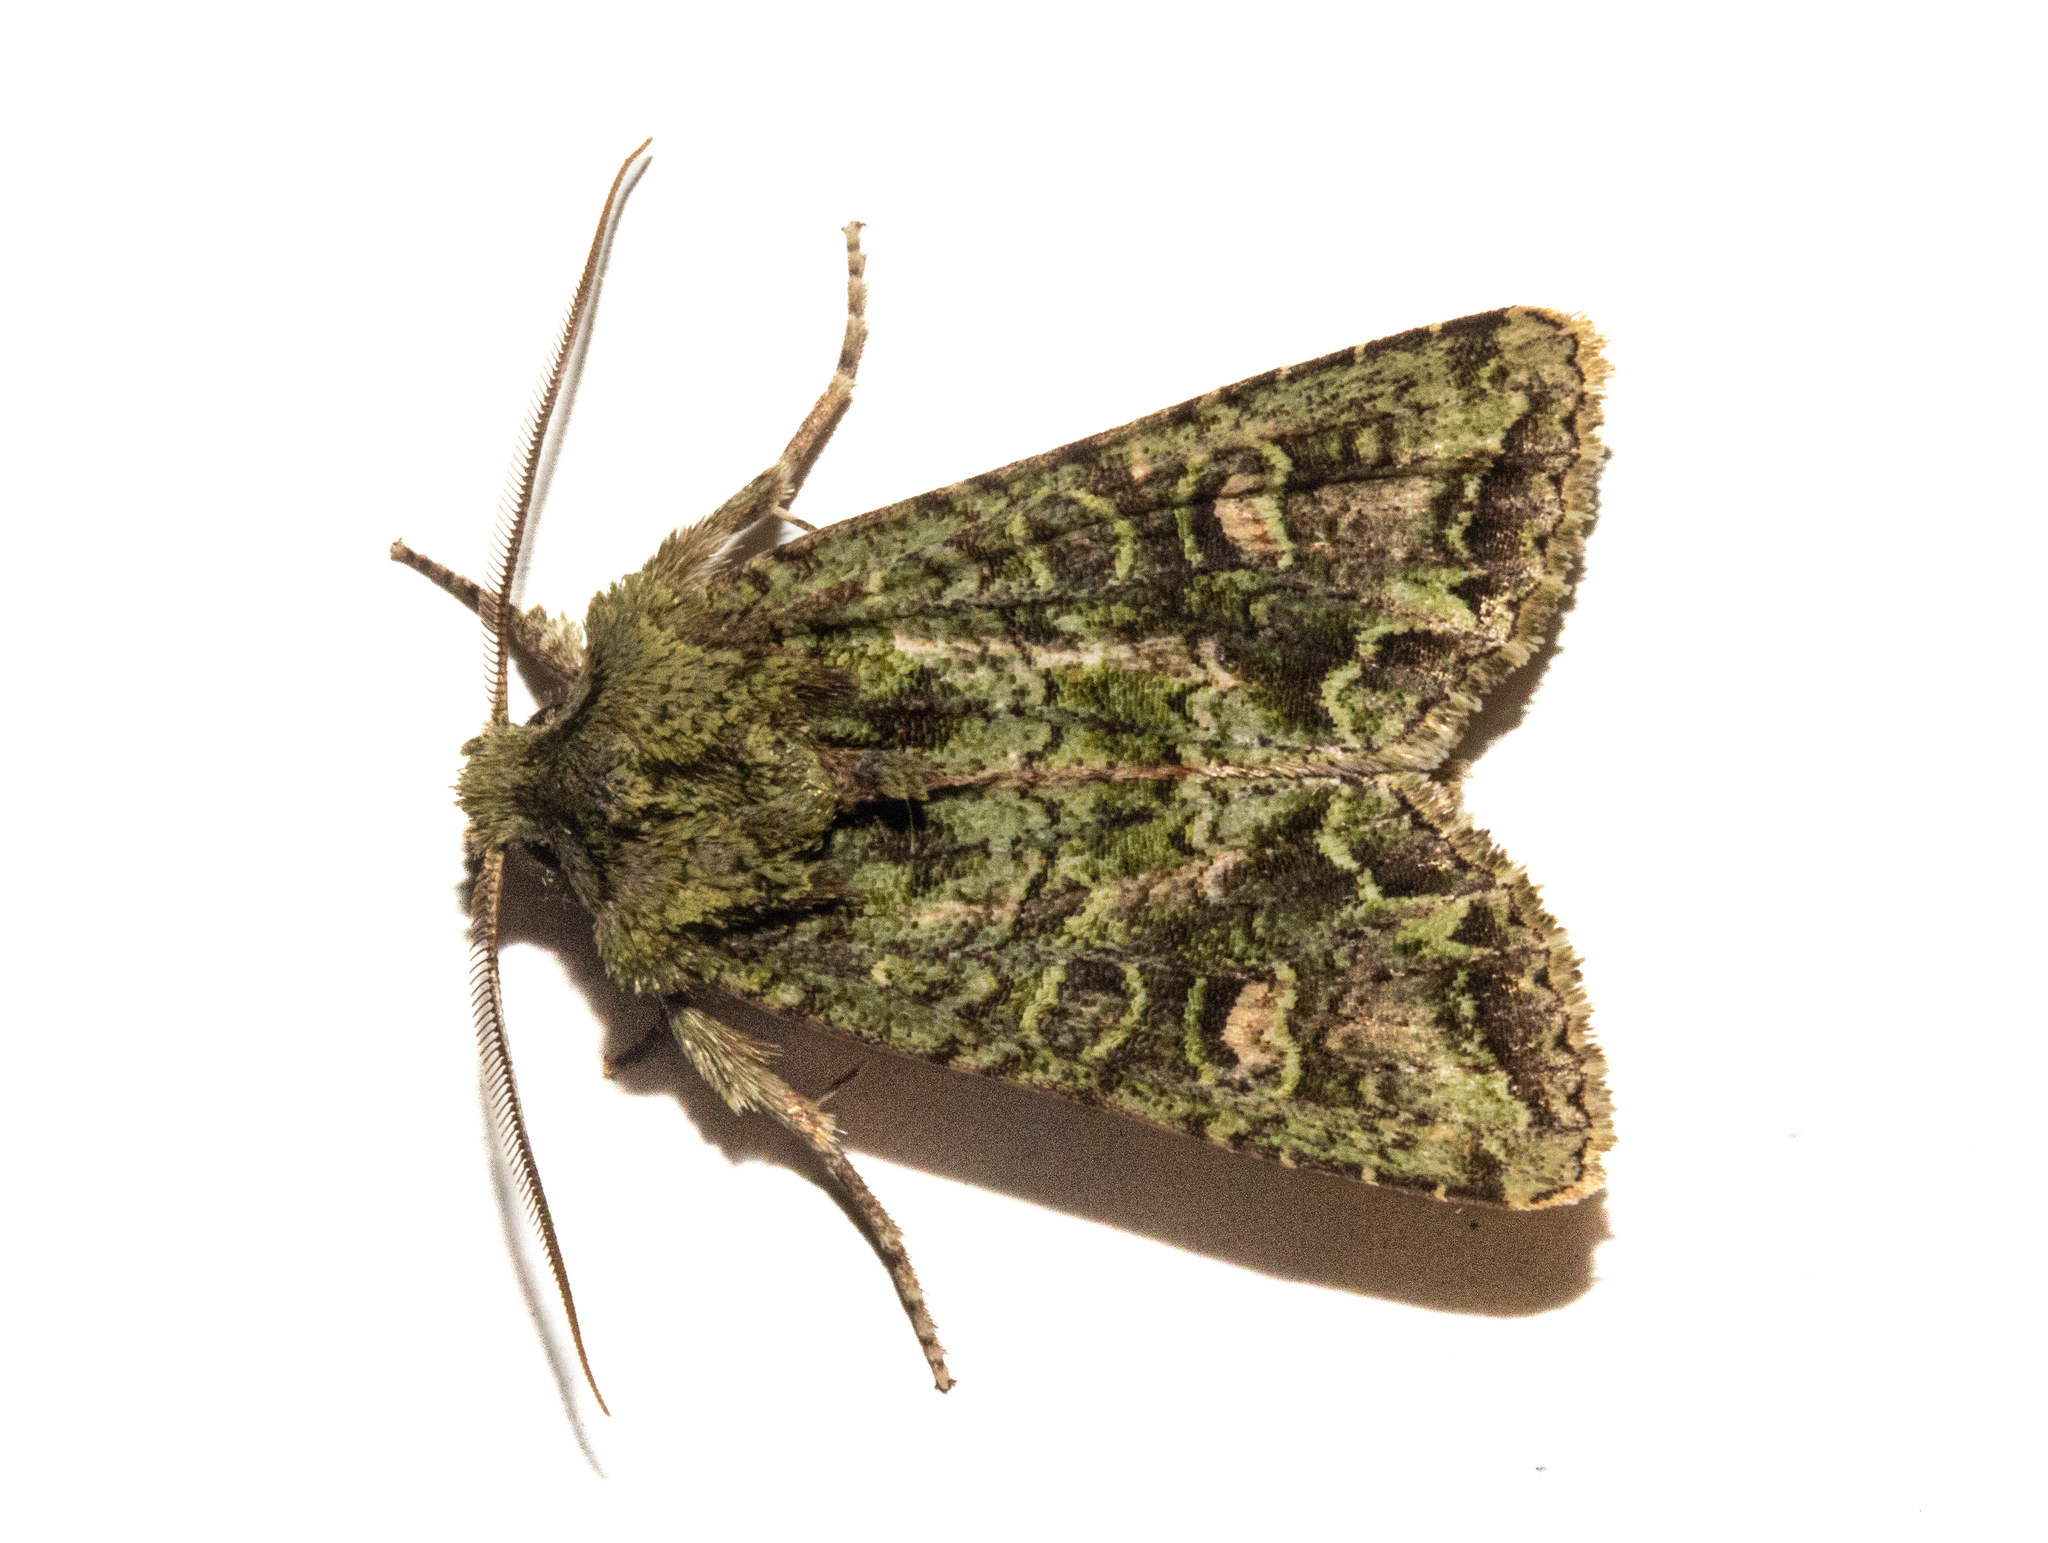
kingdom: Animalia
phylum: Arthropoda
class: Insecta
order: Lepidoptera
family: Noctuidae
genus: Ichneutica
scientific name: Ichneutica
